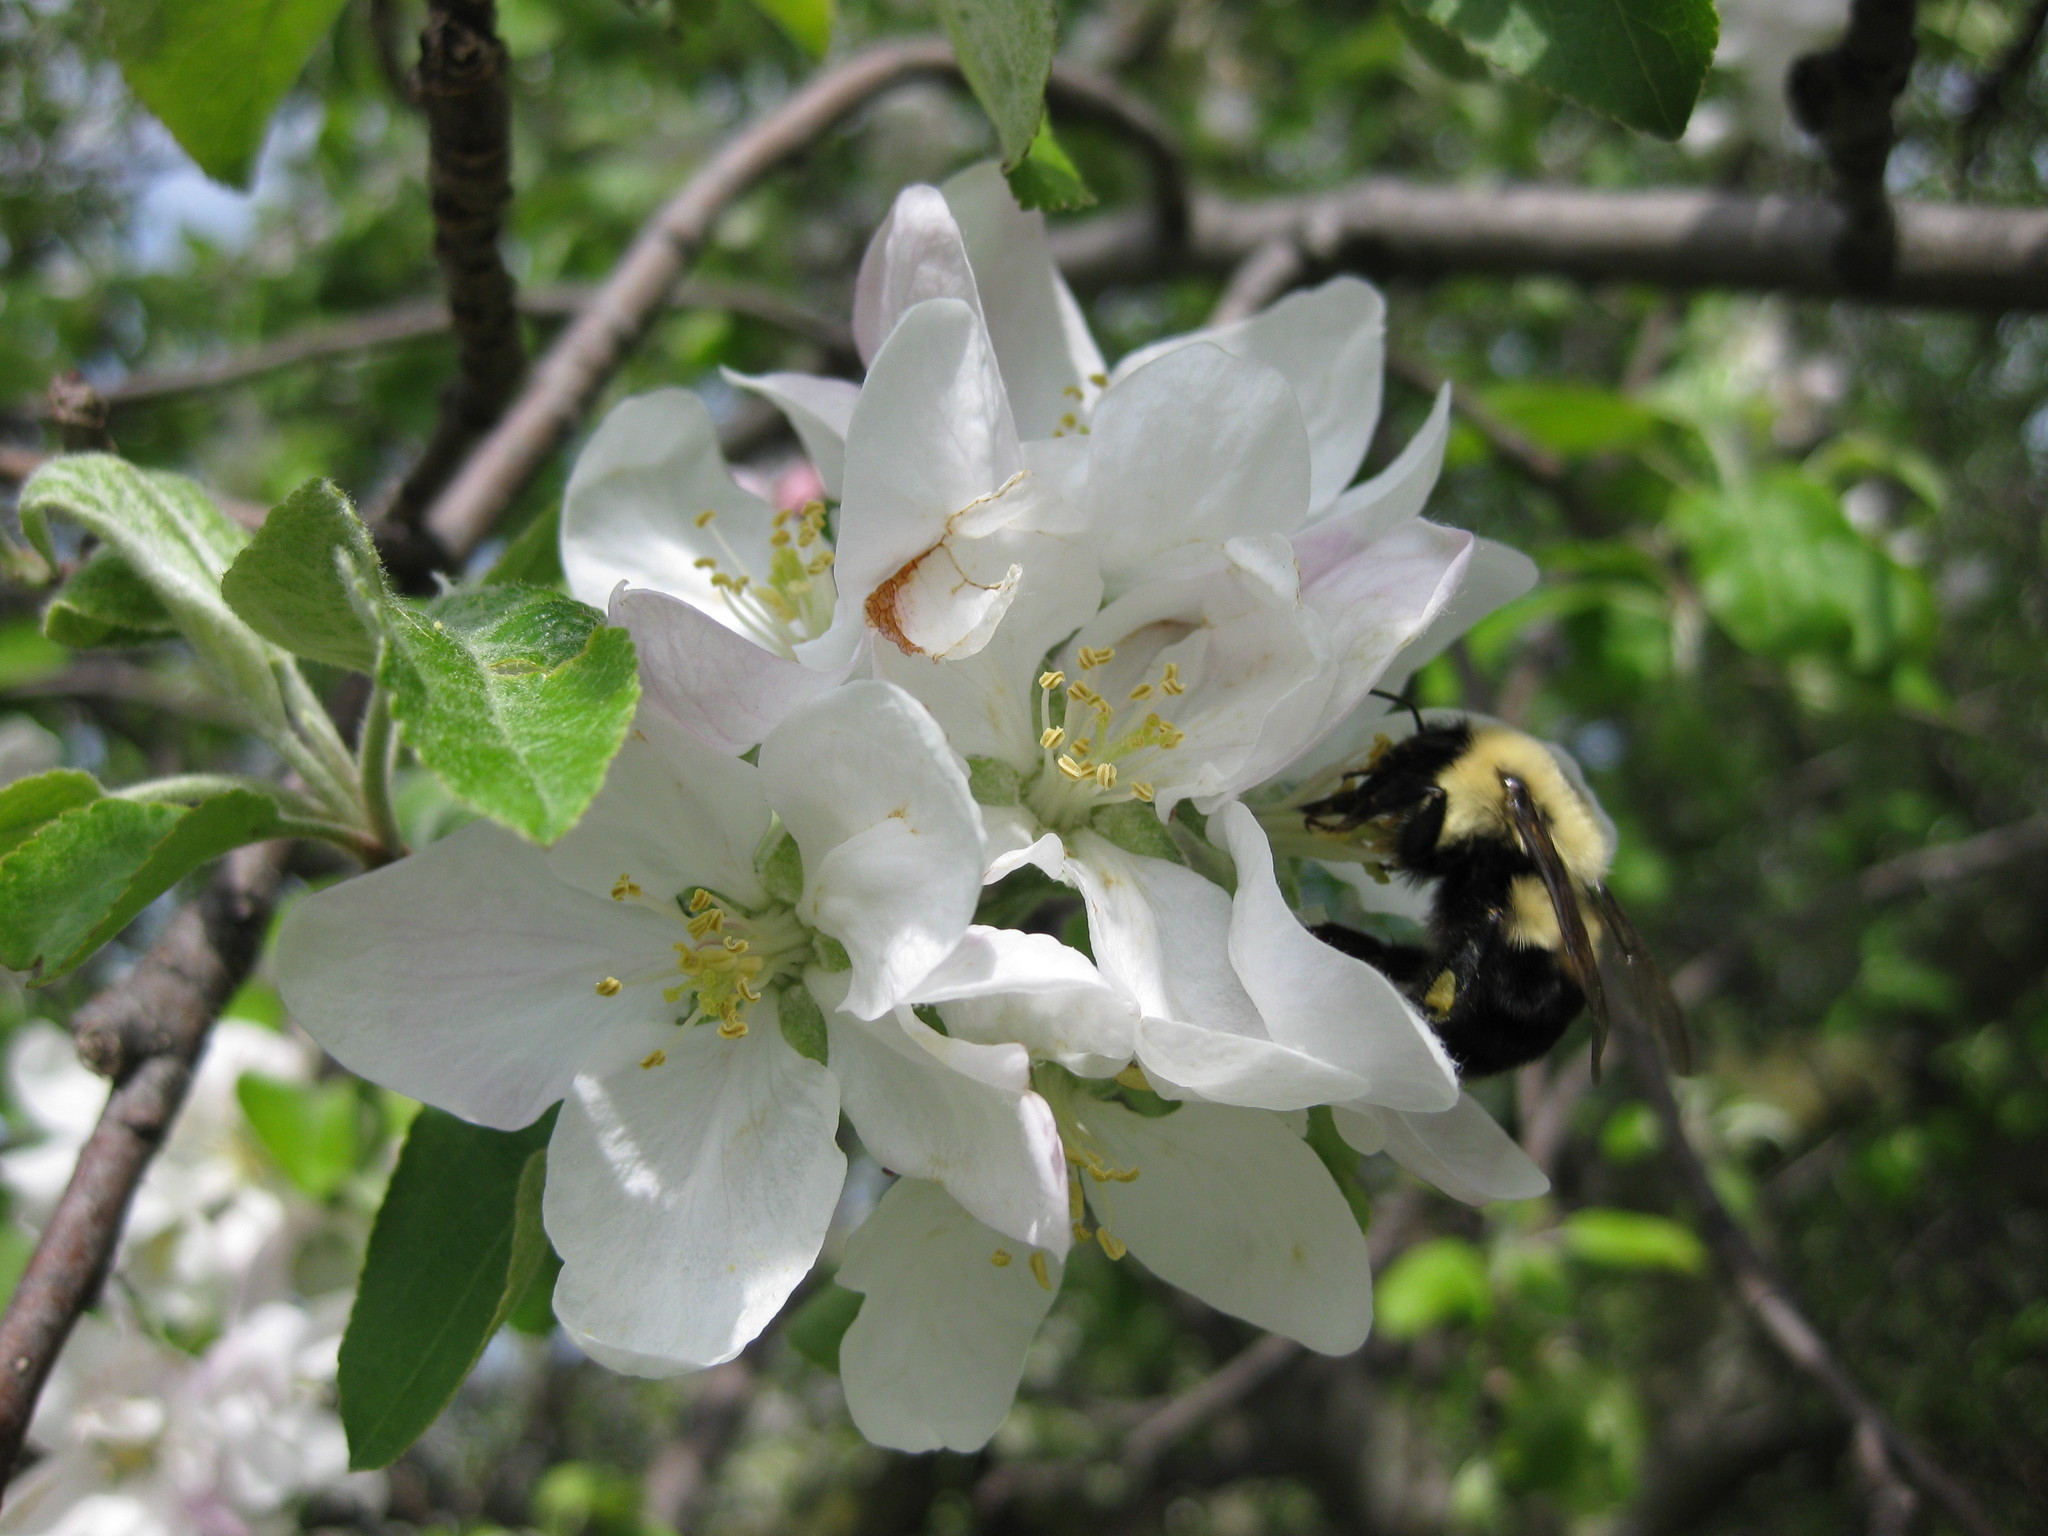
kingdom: Animalia
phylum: Arthropoda
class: Insecta
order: Hymenoptera
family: Apidae
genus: Bombus
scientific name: Bombus bimaculatus
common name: Two-spotted bumble bee
